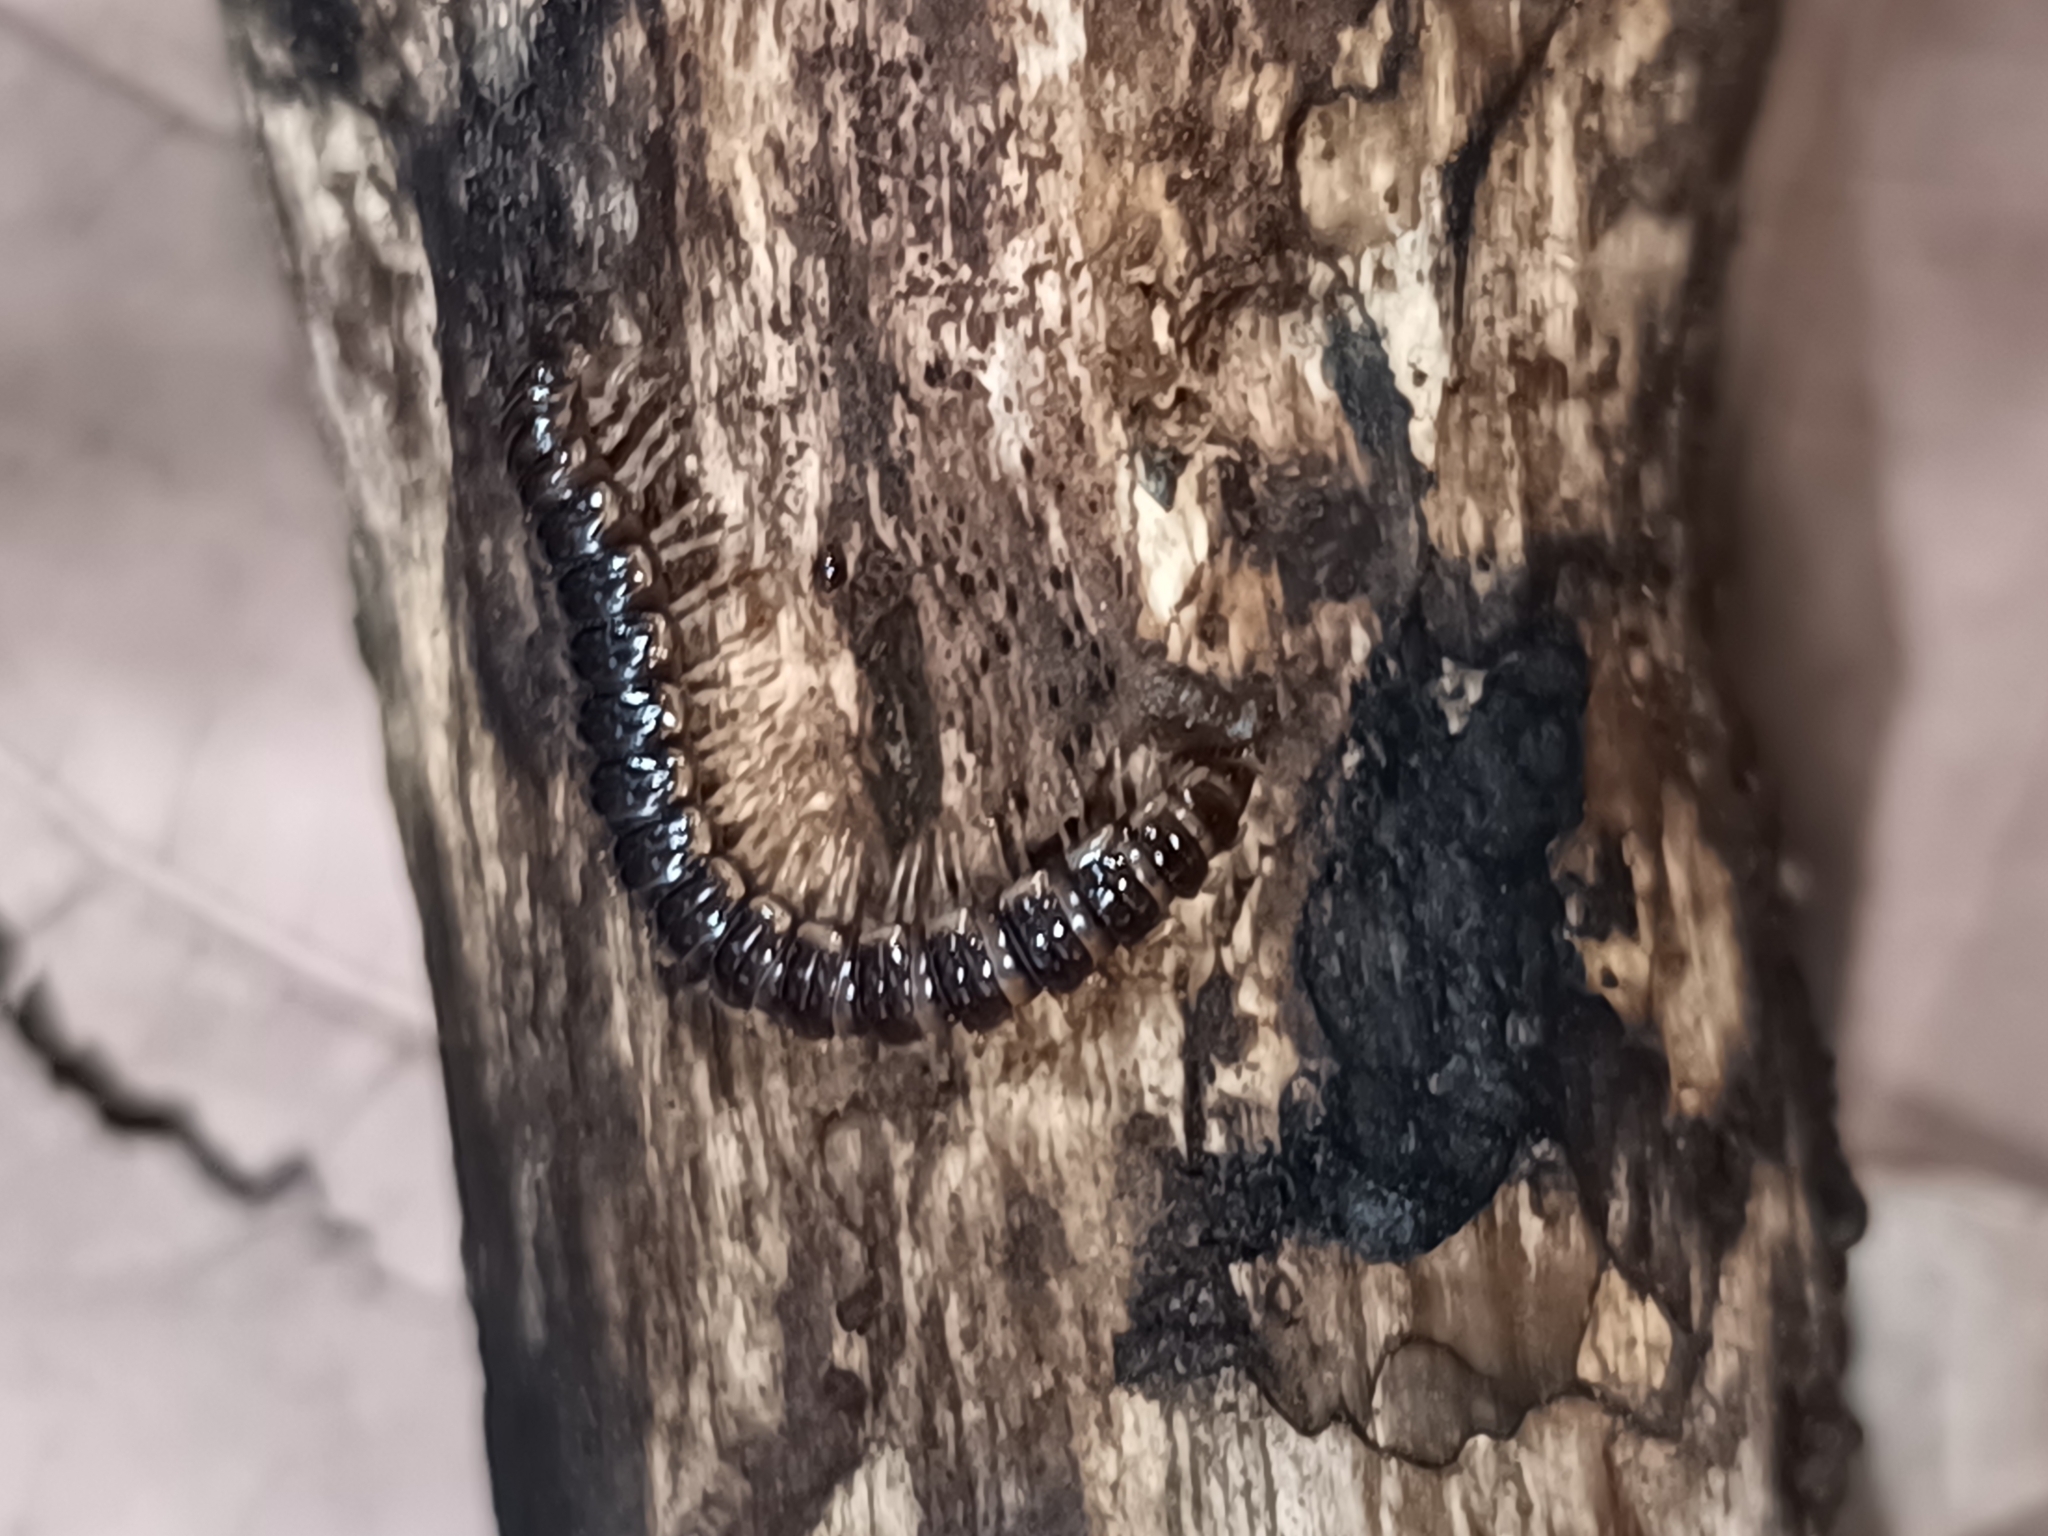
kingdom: Animalia
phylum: Arthropoda
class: Diplopoda
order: Polydesmida
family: Paradoxosomatidae
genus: Oxidus
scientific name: Oxidus gracilis
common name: Greenhouse millipede
